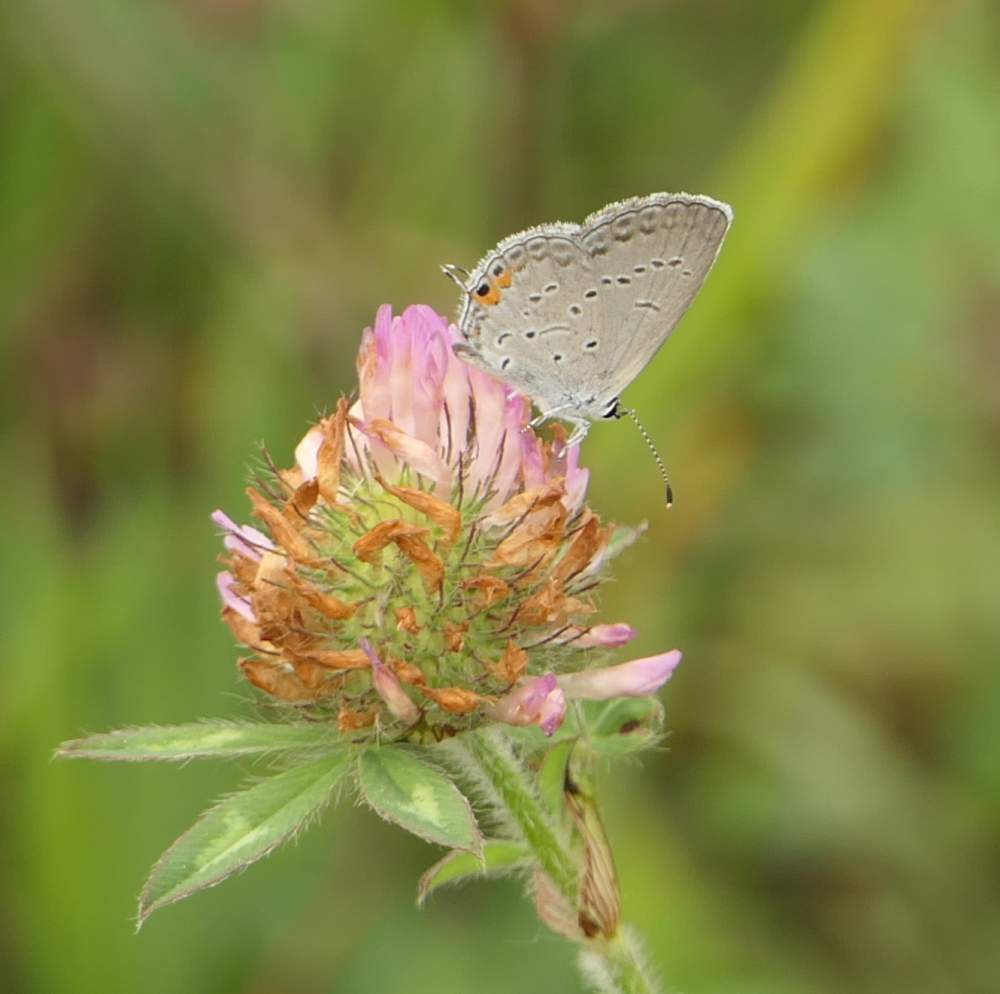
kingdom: Animalia
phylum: Arthropoda
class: Insecta
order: Lepidoptera
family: Lycaenidae
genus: Elkalyce
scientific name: Elkalyce comyntas
